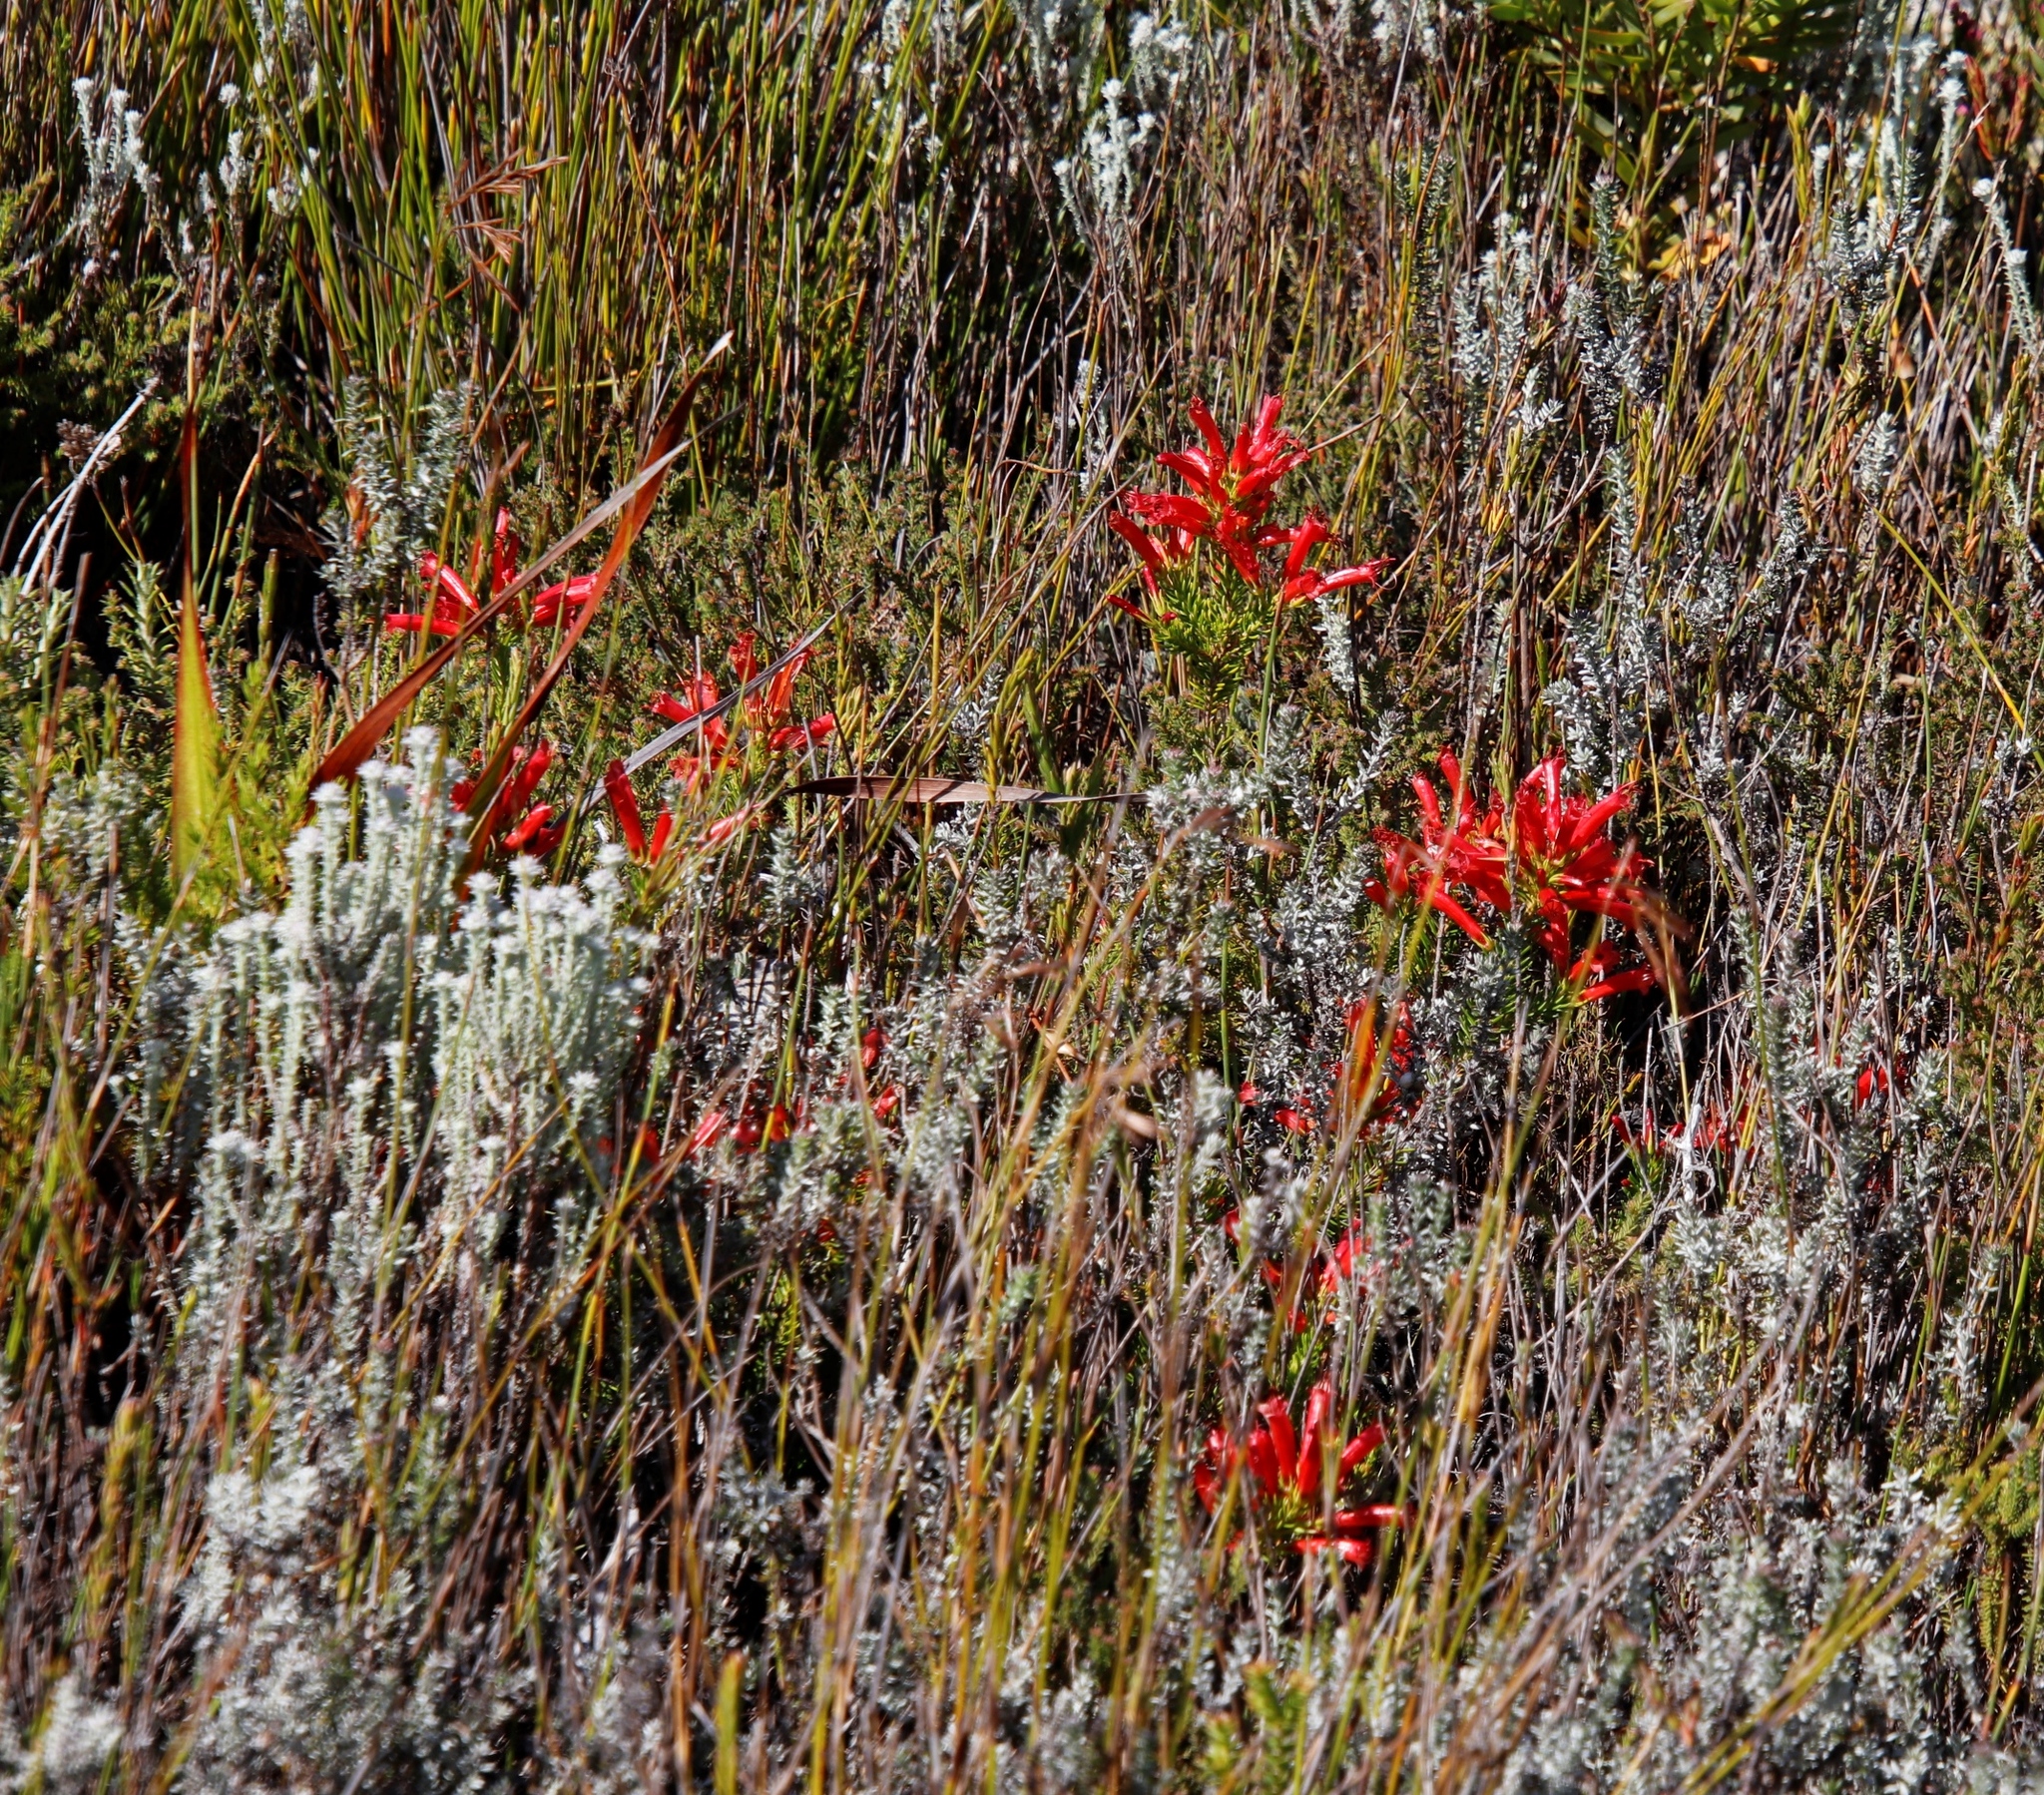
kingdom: Plantae
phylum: Tracheophyta
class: Magnoliopsida
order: Ericales
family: Ericaceae
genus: Erica
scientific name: Erica nevillei
